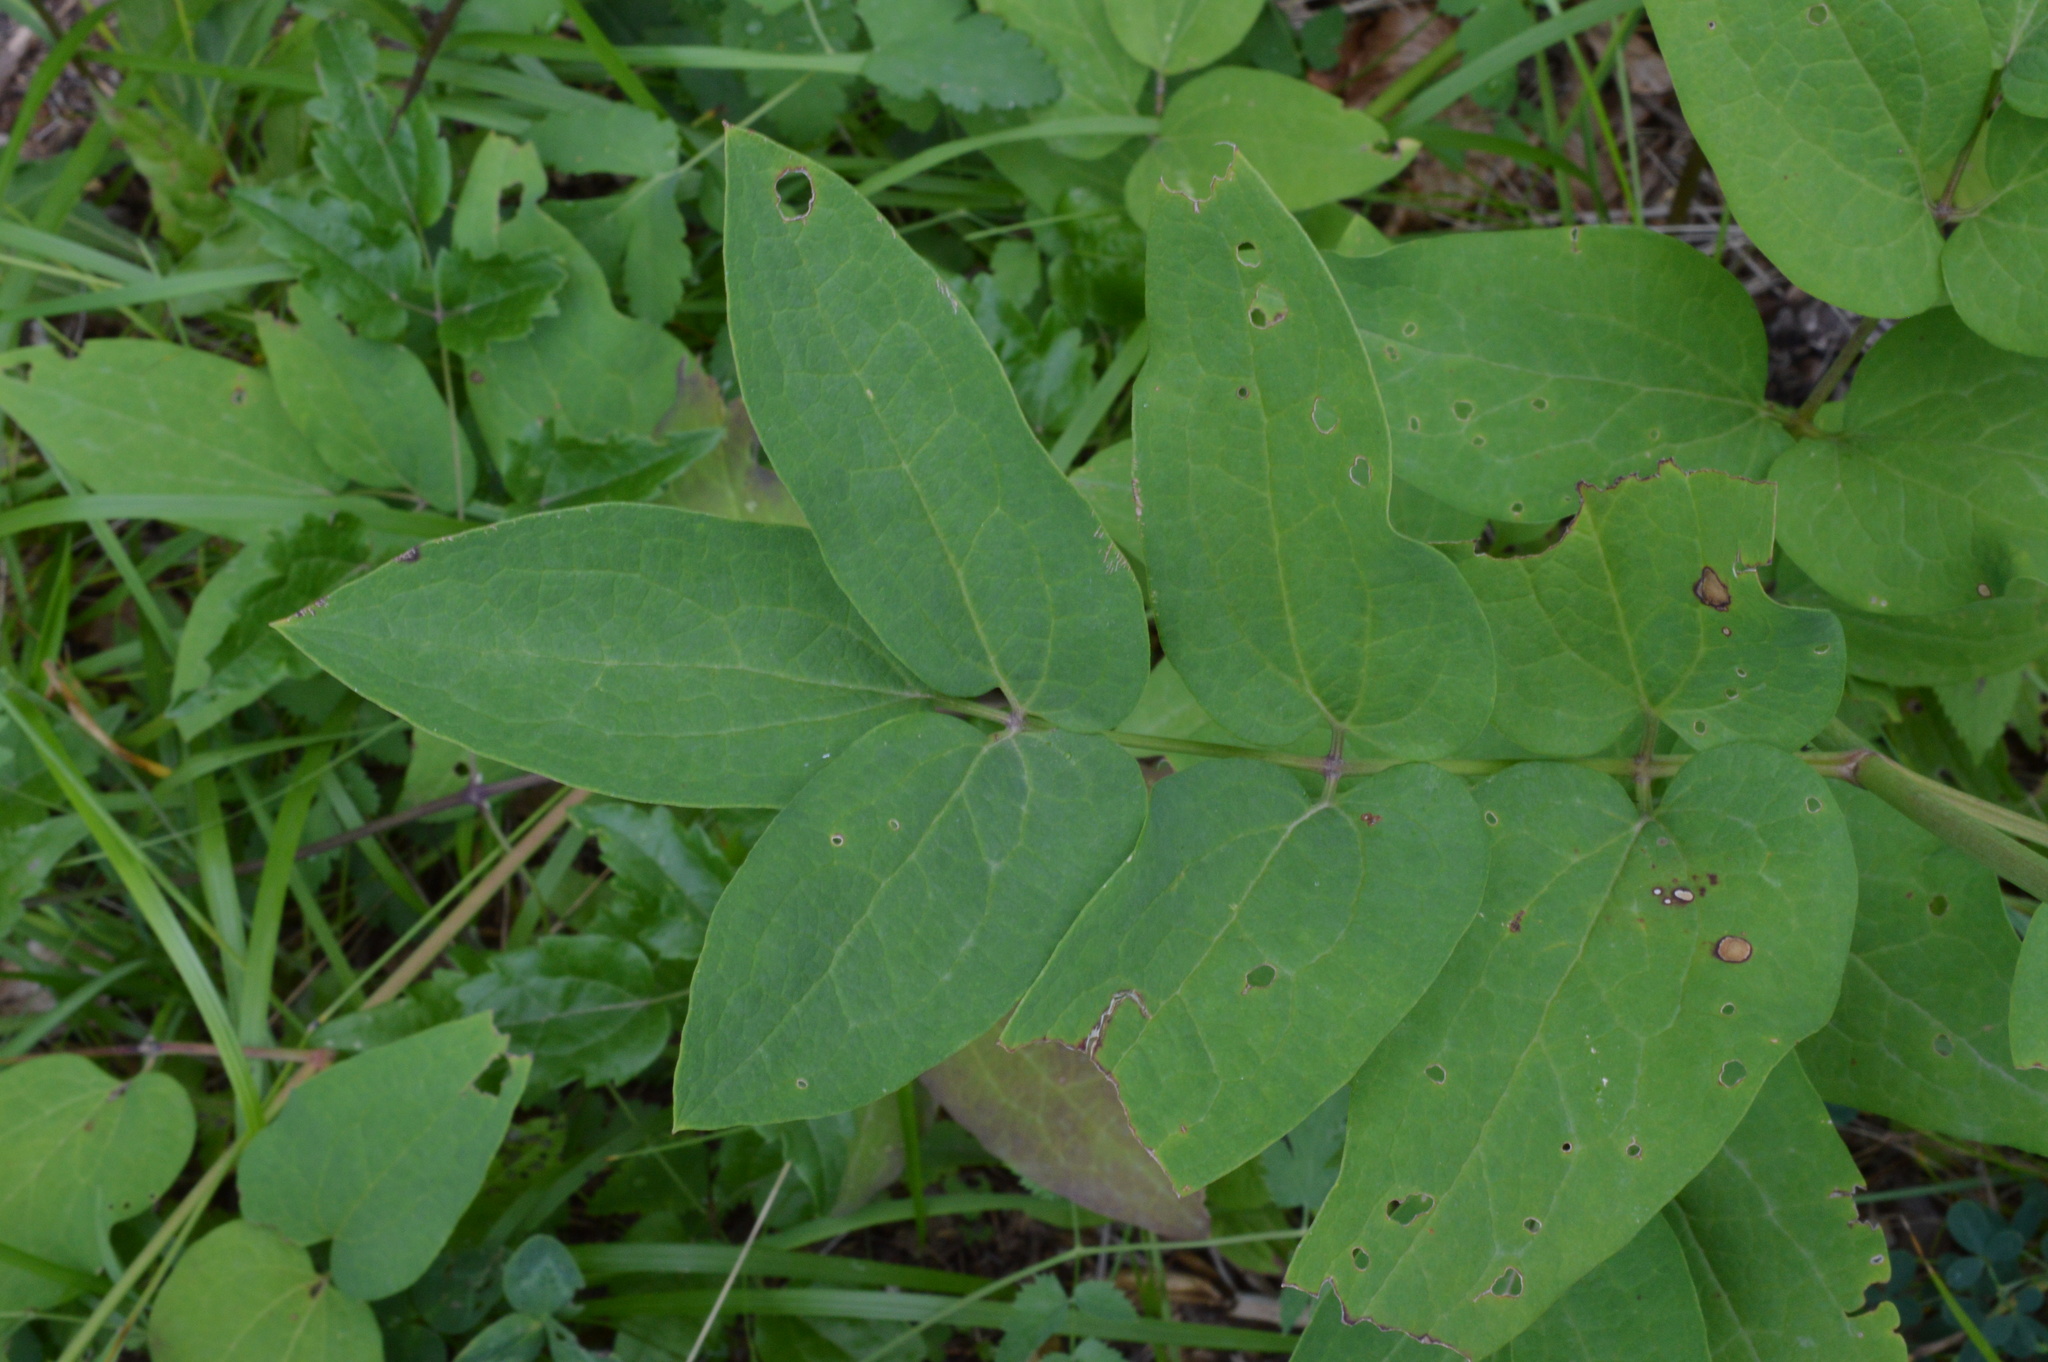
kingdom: Plantae
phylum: Tracheophyta
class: Magnoliopsida
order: Ranunculales
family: Ranunculaceae
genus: Clematis
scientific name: Clematis recta
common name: Ground clematis
